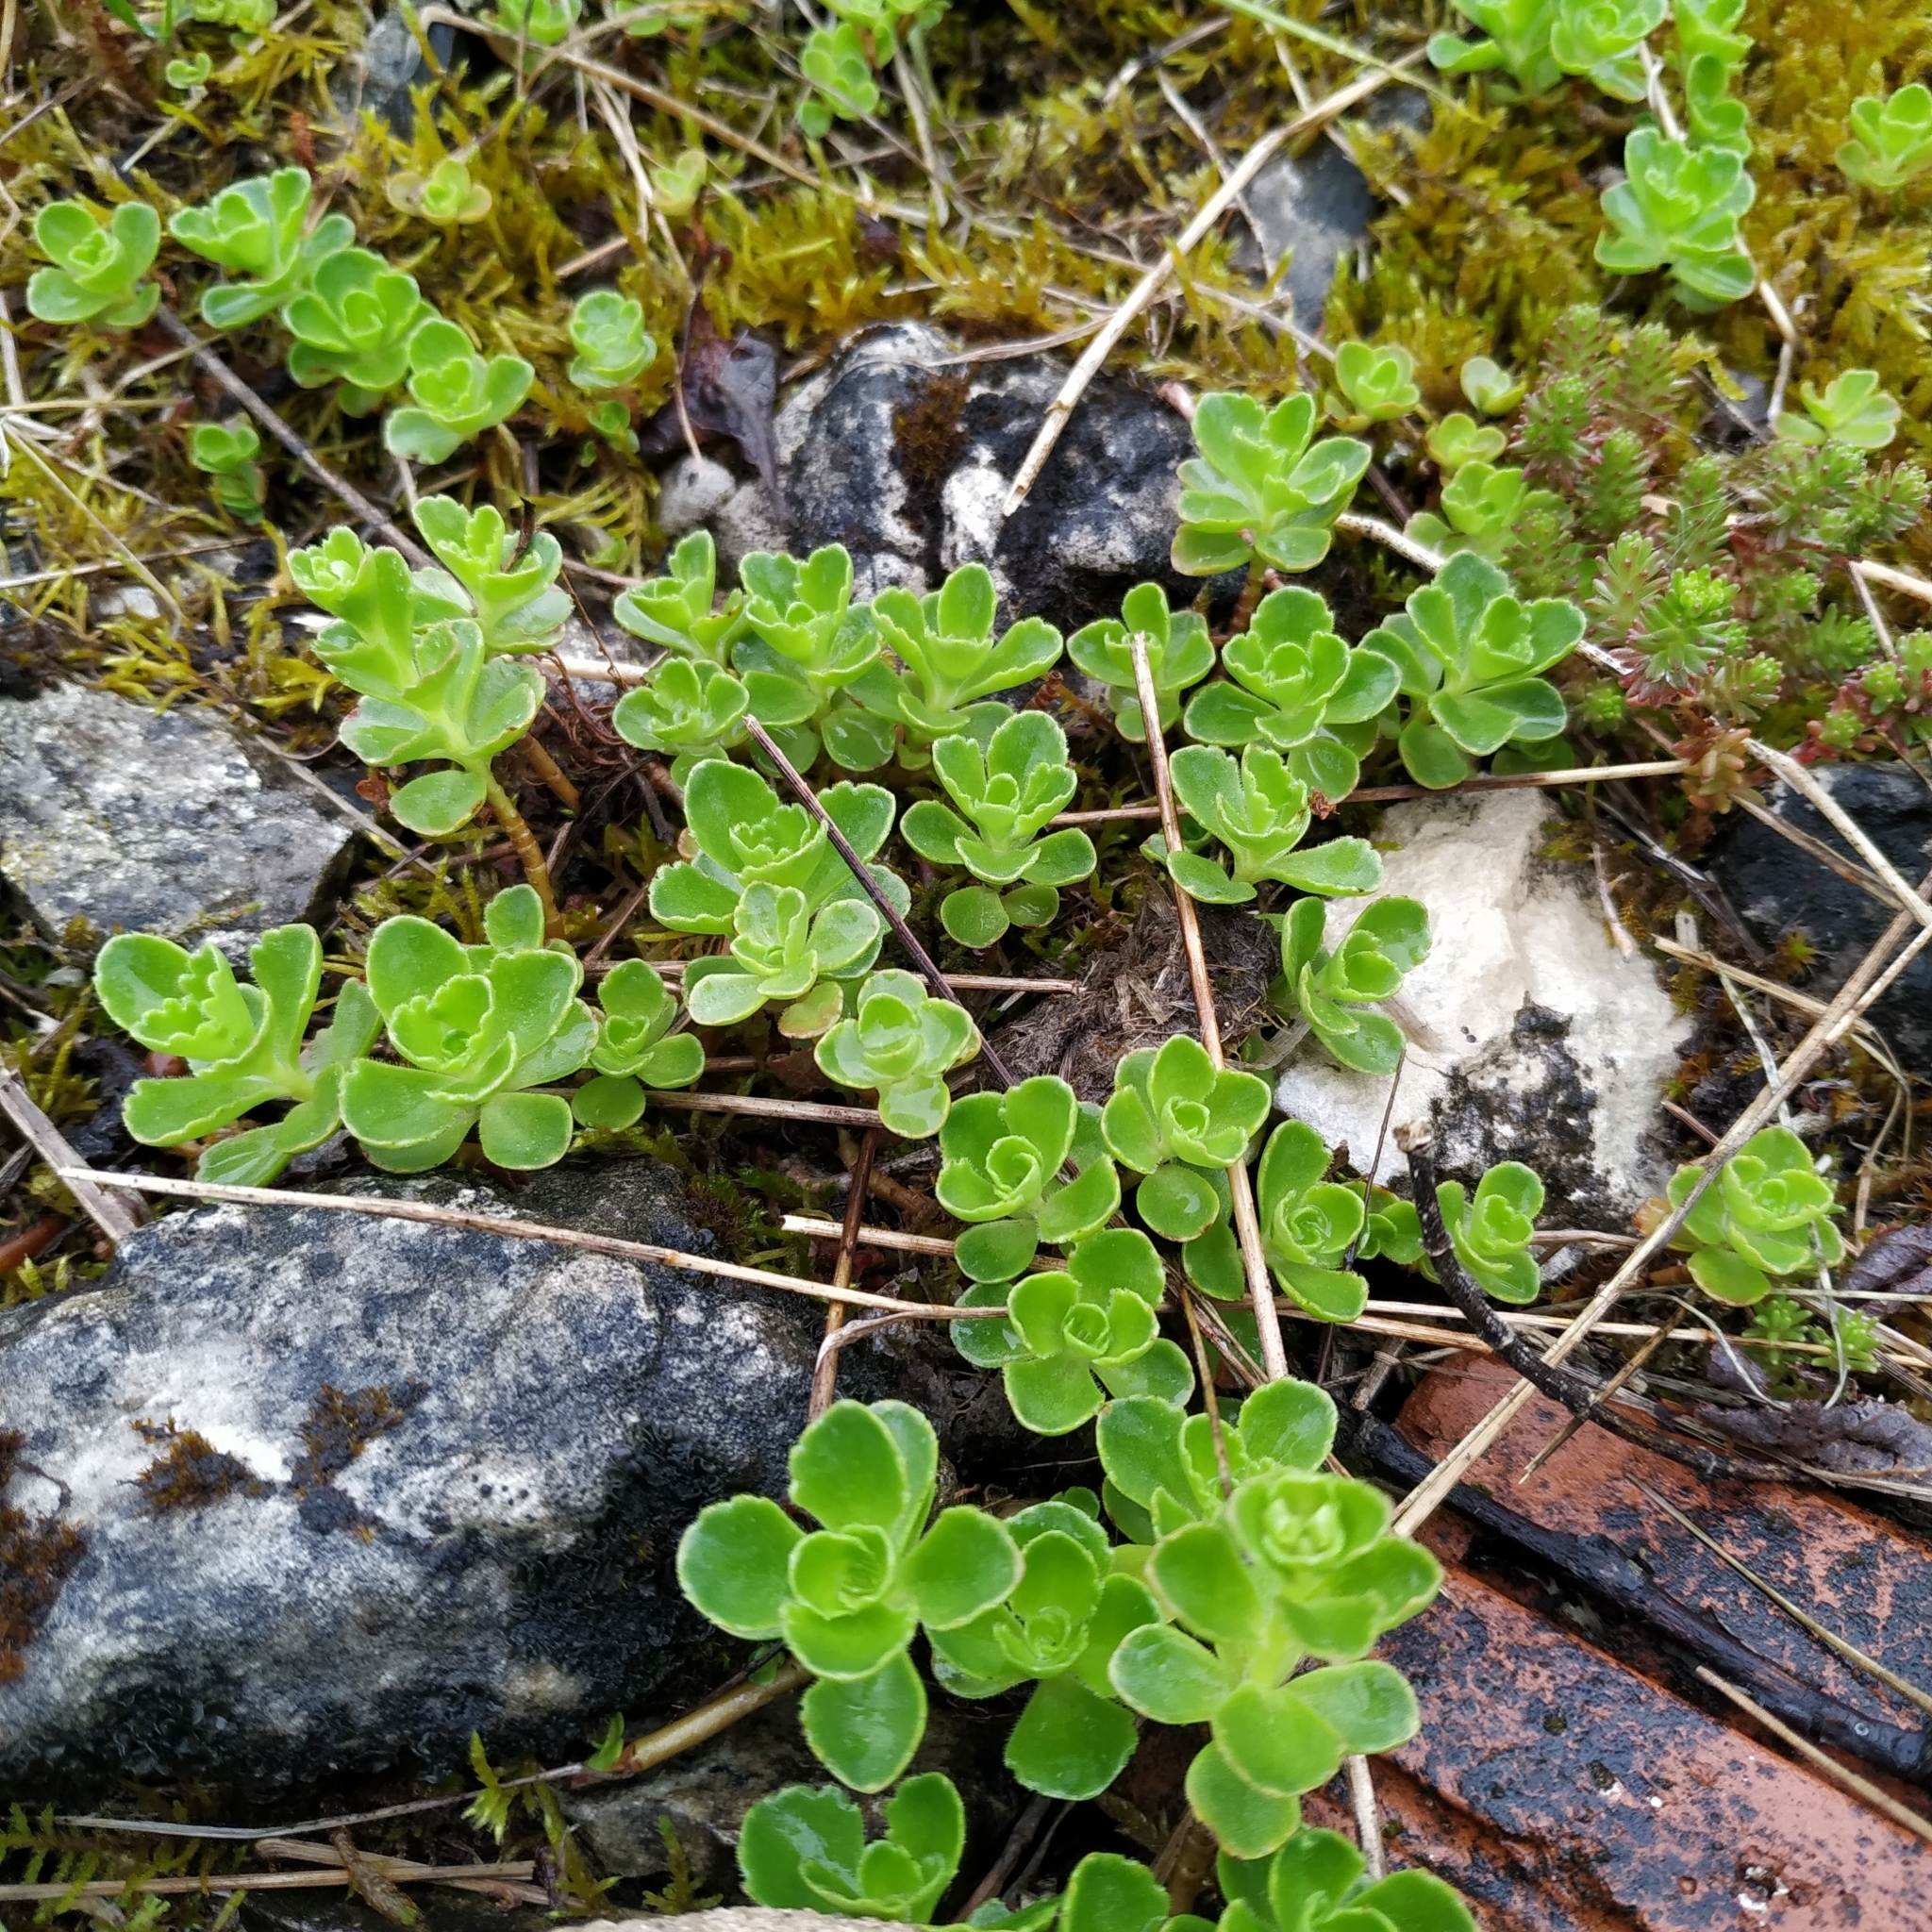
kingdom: Plantae
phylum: Tracheophyta
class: Magnoliopsida
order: Saxifragales
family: Crassulaceae
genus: Phedimus
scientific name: Phedimus spurius
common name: Caucasian stonecrop
